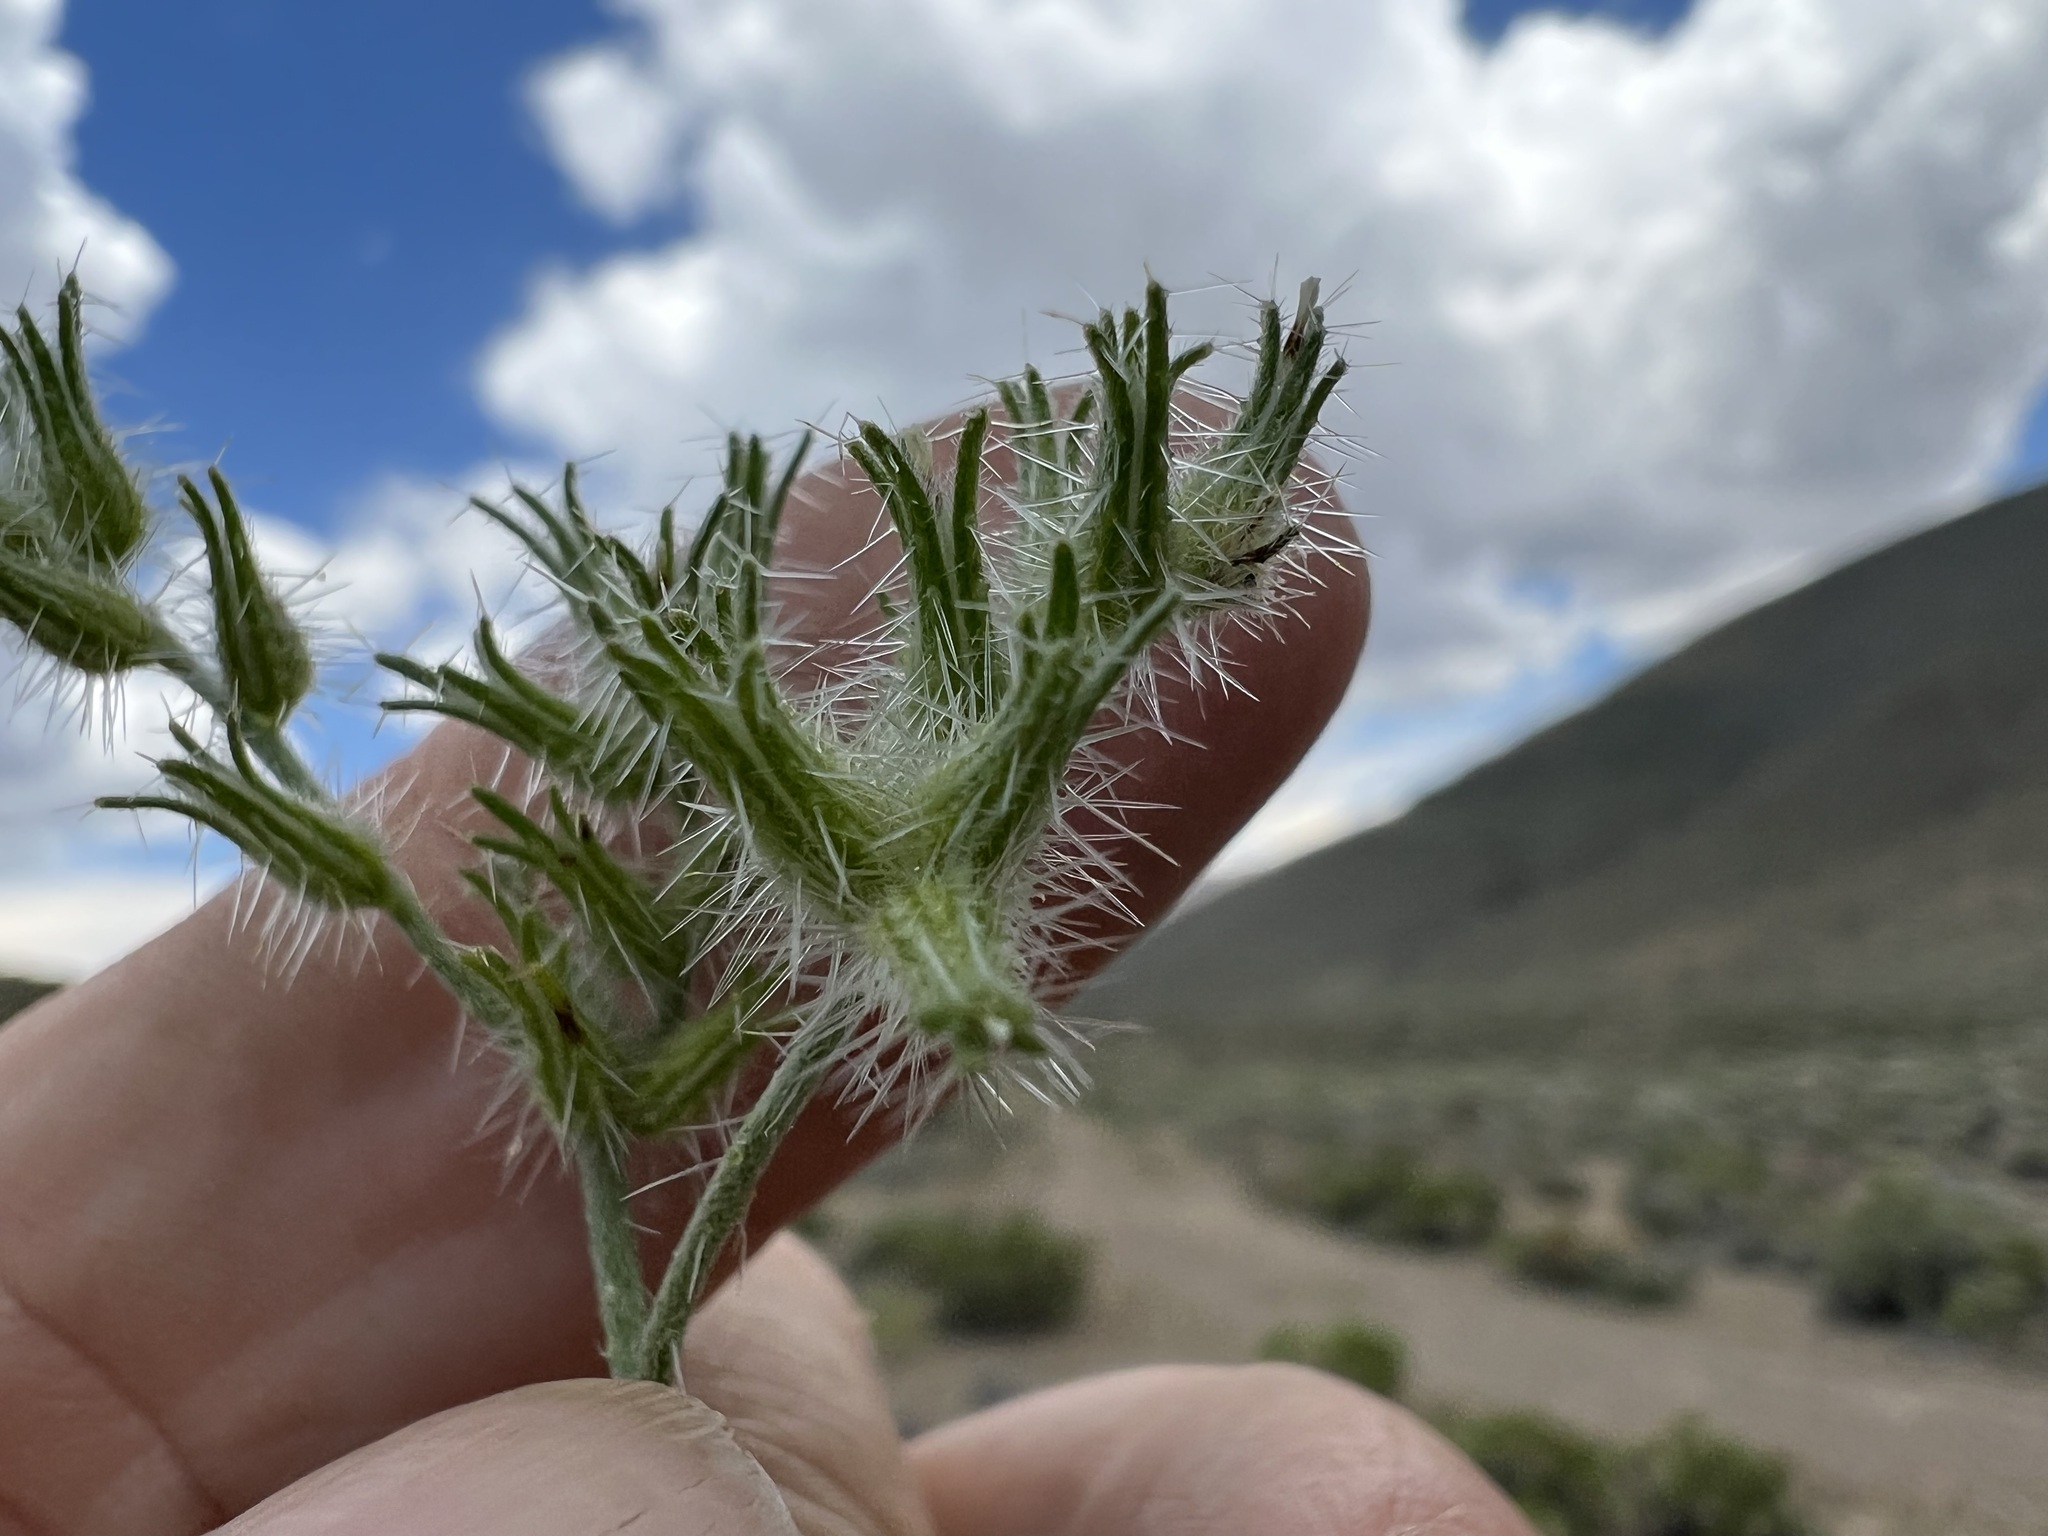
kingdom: Plantae
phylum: Tracheophyta
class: Magnoliopsida
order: Boraginales
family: Boraginaceae
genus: Cryptantha
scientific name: Cryptantha nevadensis
